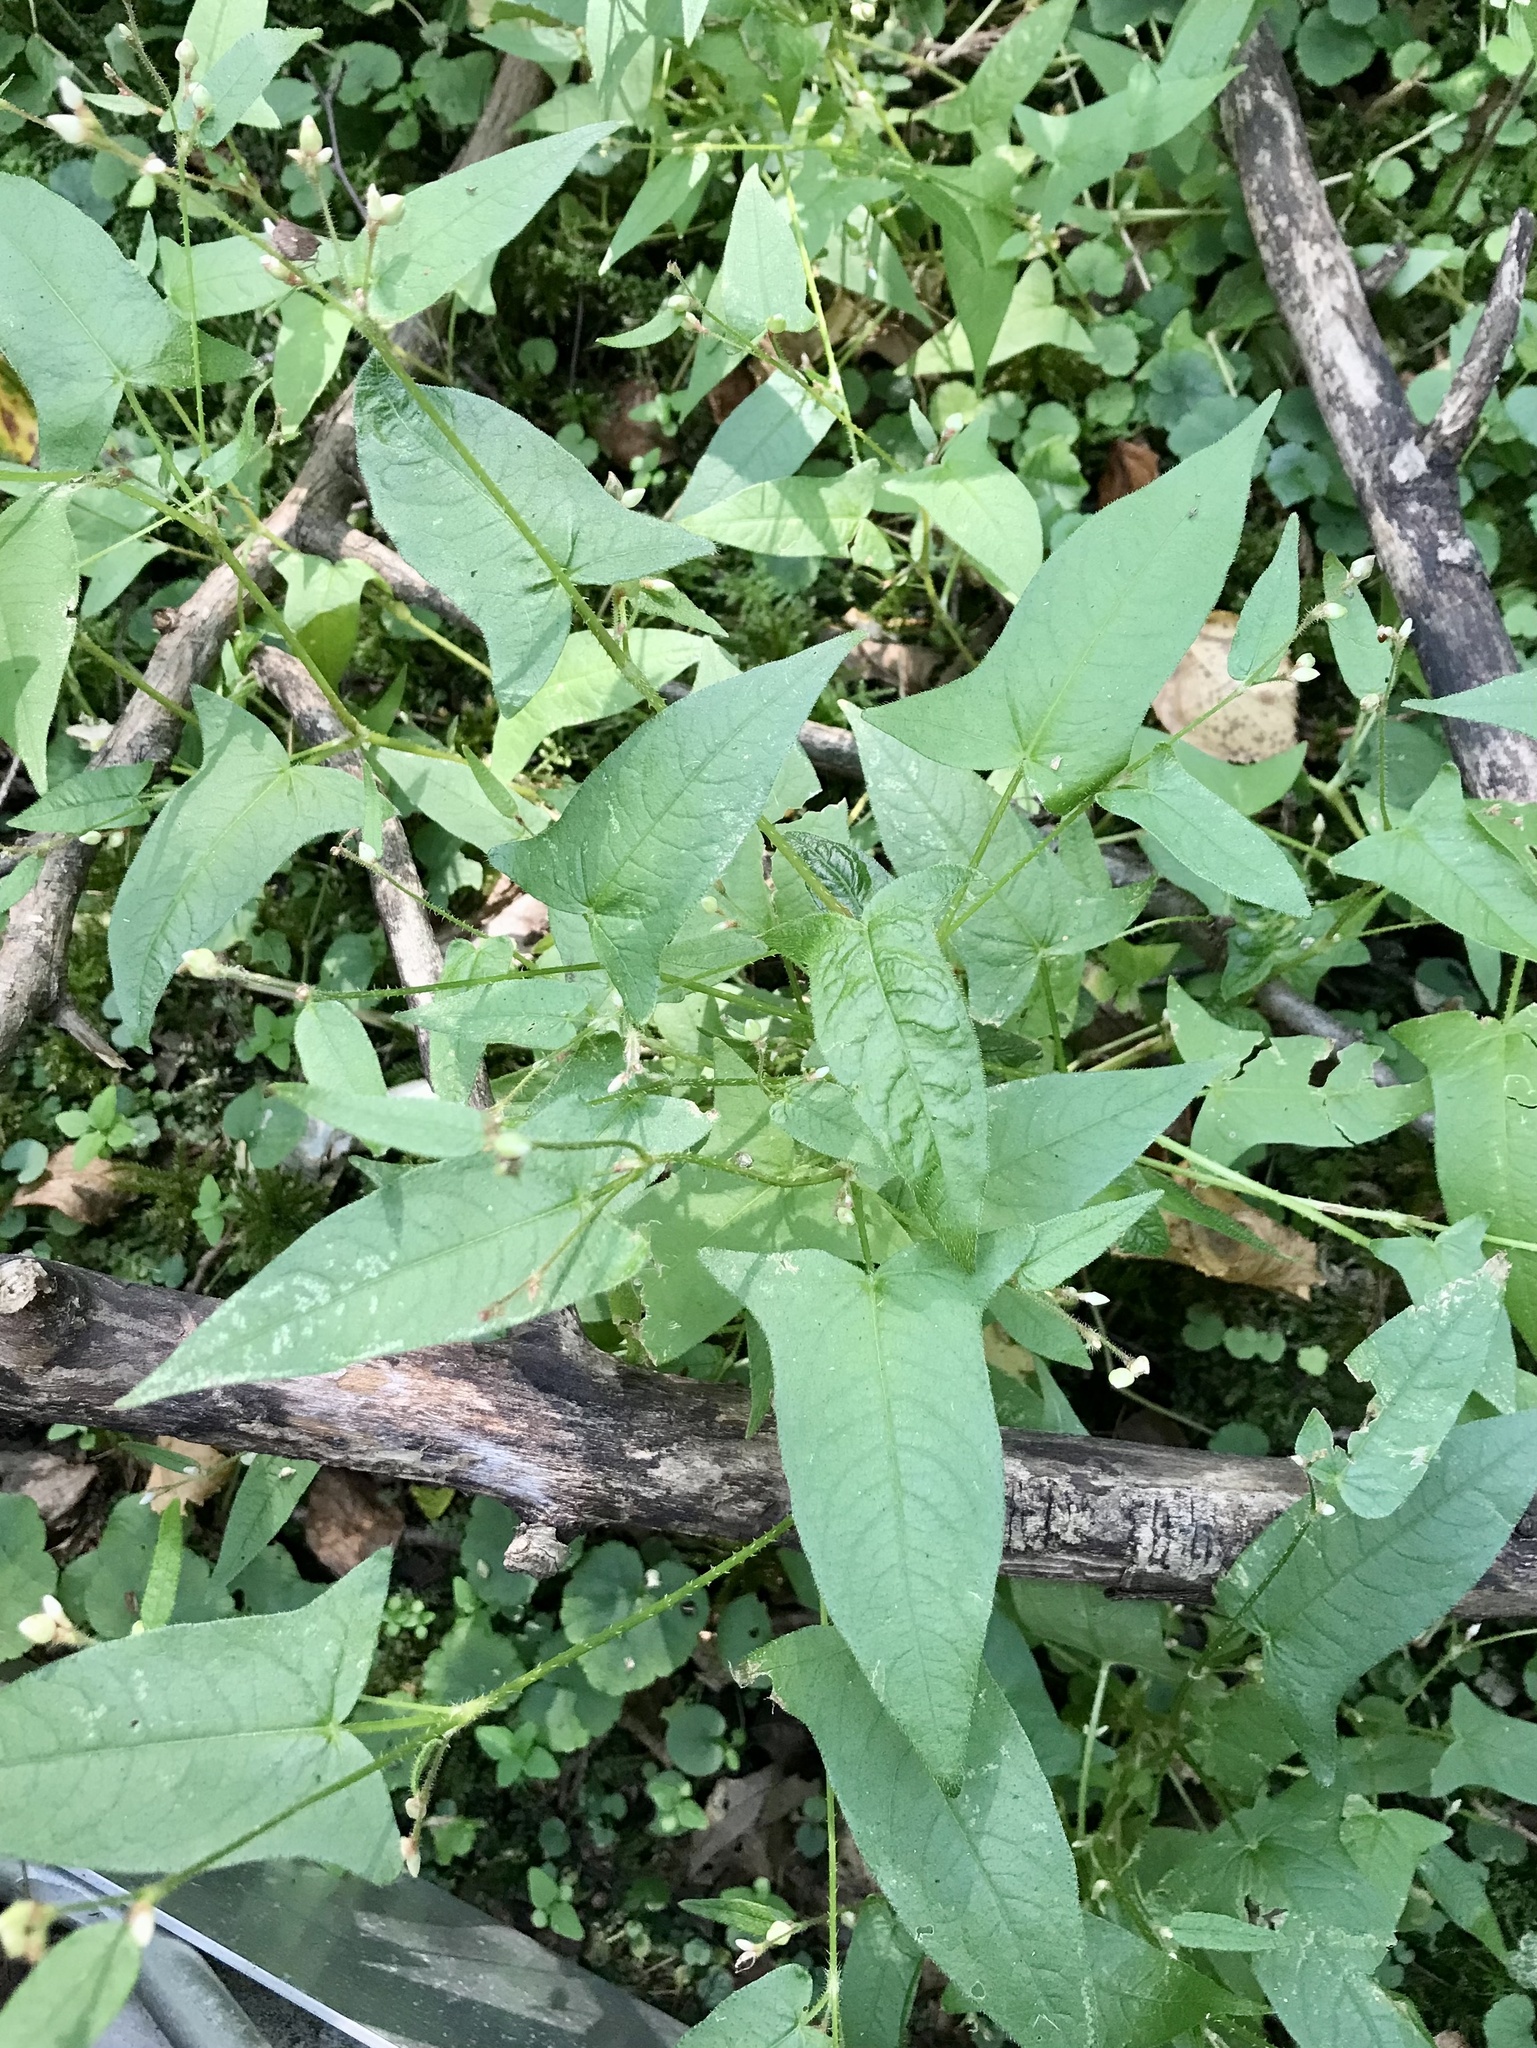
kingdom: Plantae
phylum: Tracheophyta
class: Magnoliopsida
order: Caryophyllales
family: Polygonaceae
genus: Persicaria
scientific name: Persicaria arifolia
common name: Halberd-leaved tear-thumb
